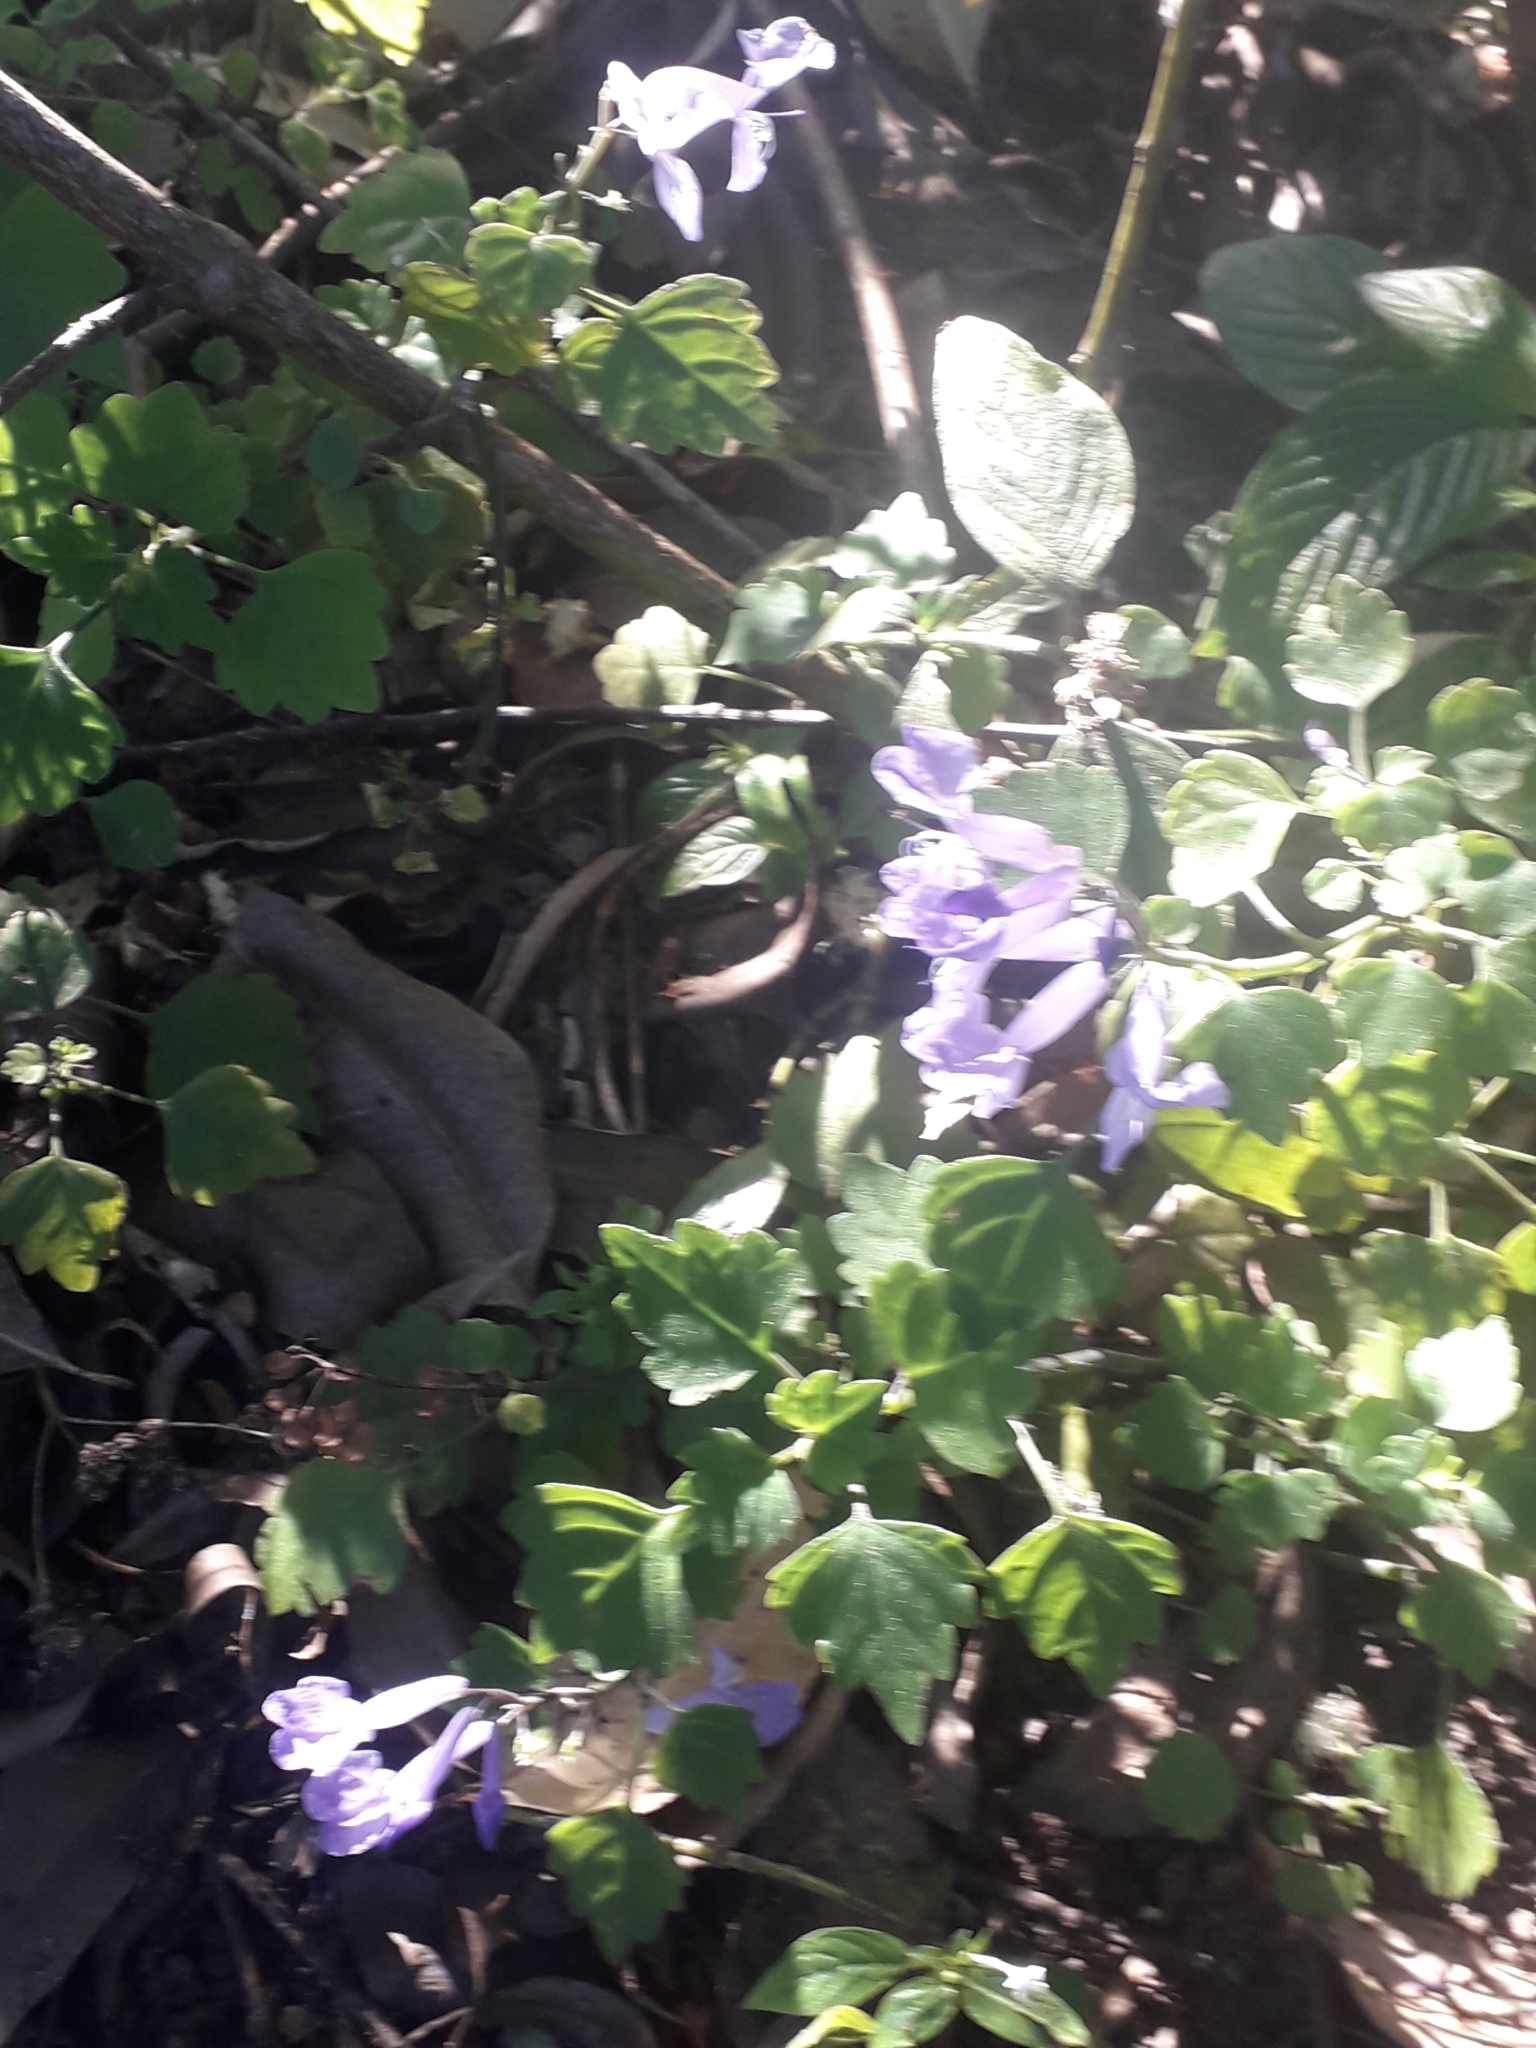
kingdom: Plantae
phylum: Tracheophyta
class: Magnoliopsida
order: Lamiales
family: Lamiaceae
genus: Plectranthus
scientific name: Plectranthus saccatus
